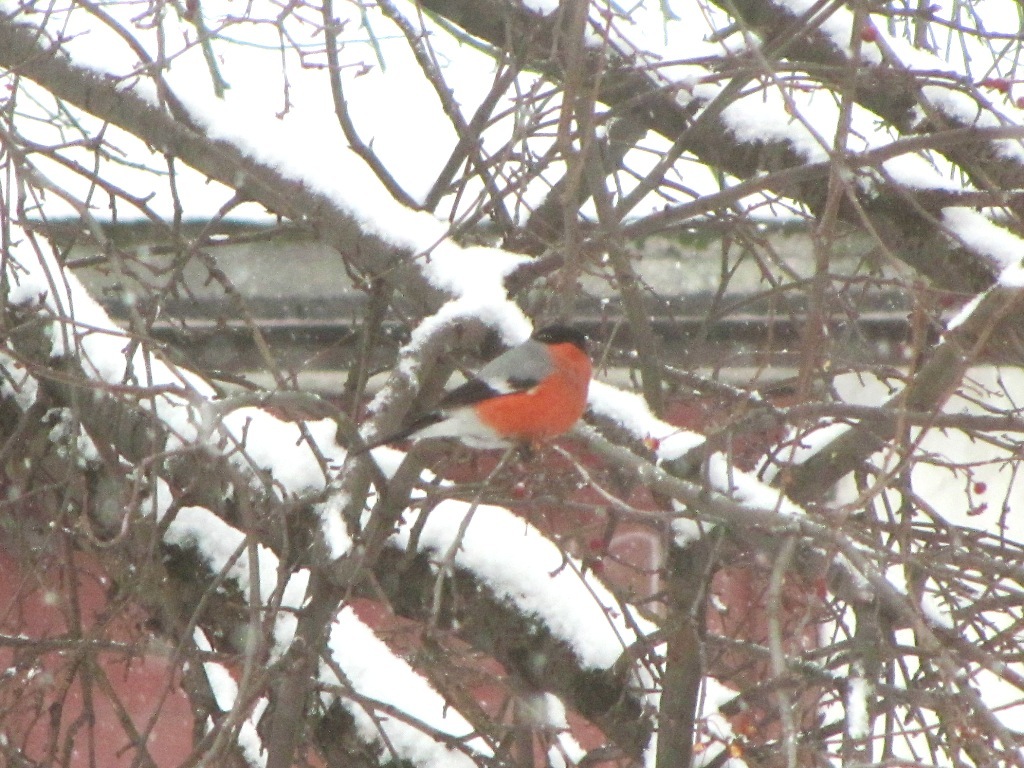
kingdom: Animalia
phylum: Chordata
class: Aves
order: Passeriformes
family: Fringillidae
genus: Pyrrhula
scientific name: Pyrrhula pyrrhula
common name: Eurasian bullfinch
